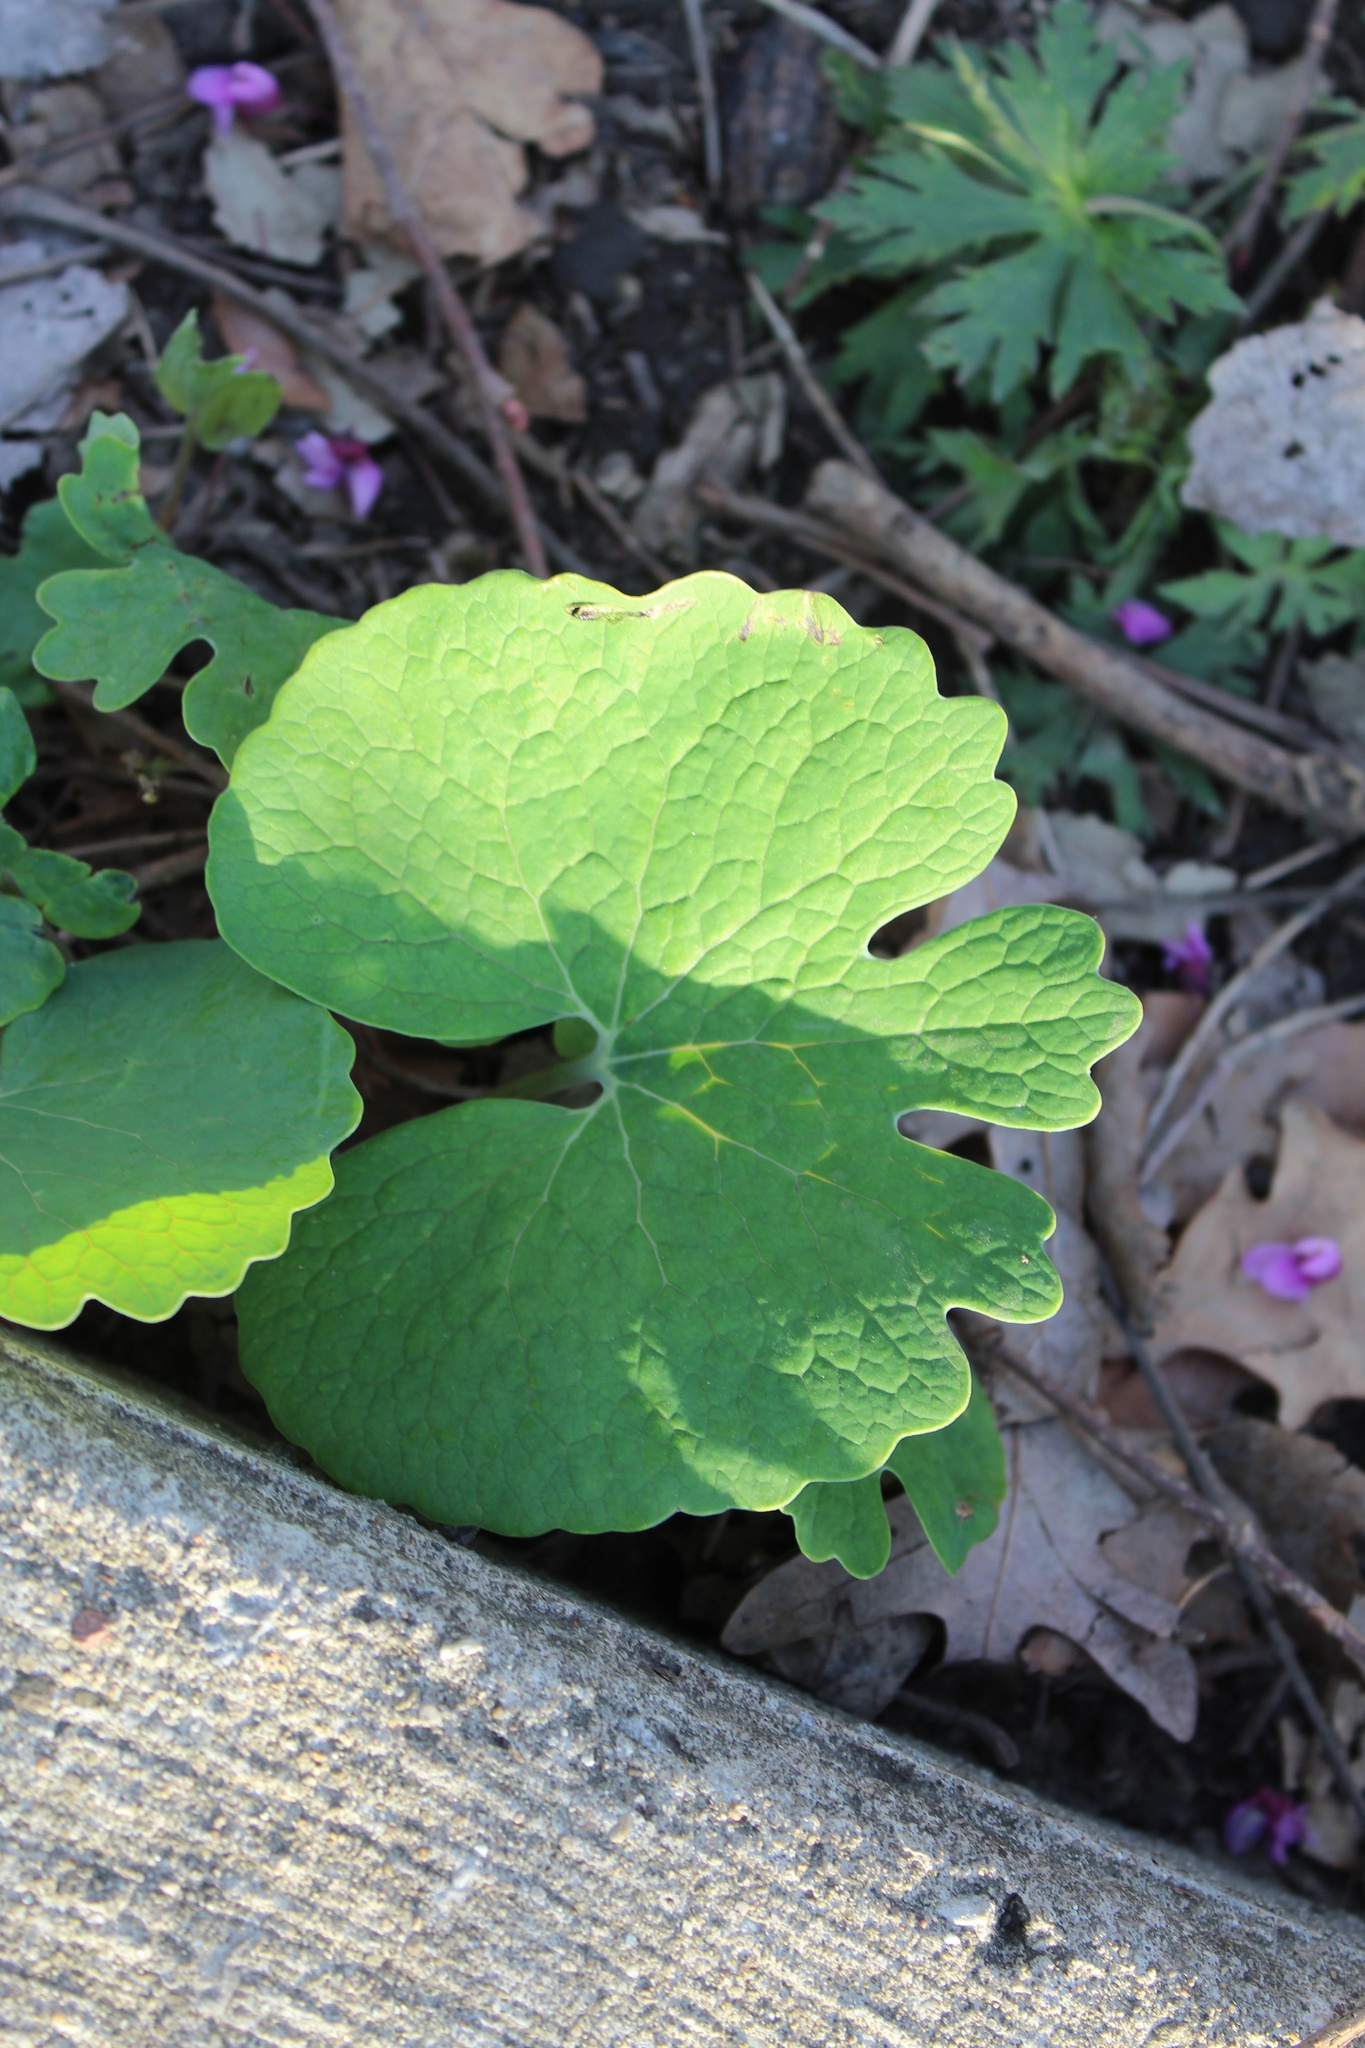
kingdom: Plantae
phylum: Tracheophyta
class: Magnoliopsida
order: Ranunculales
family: Papaveraceae
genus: Sanguinaria
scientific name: Sanguinaria canadensis
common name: Bloodroot
